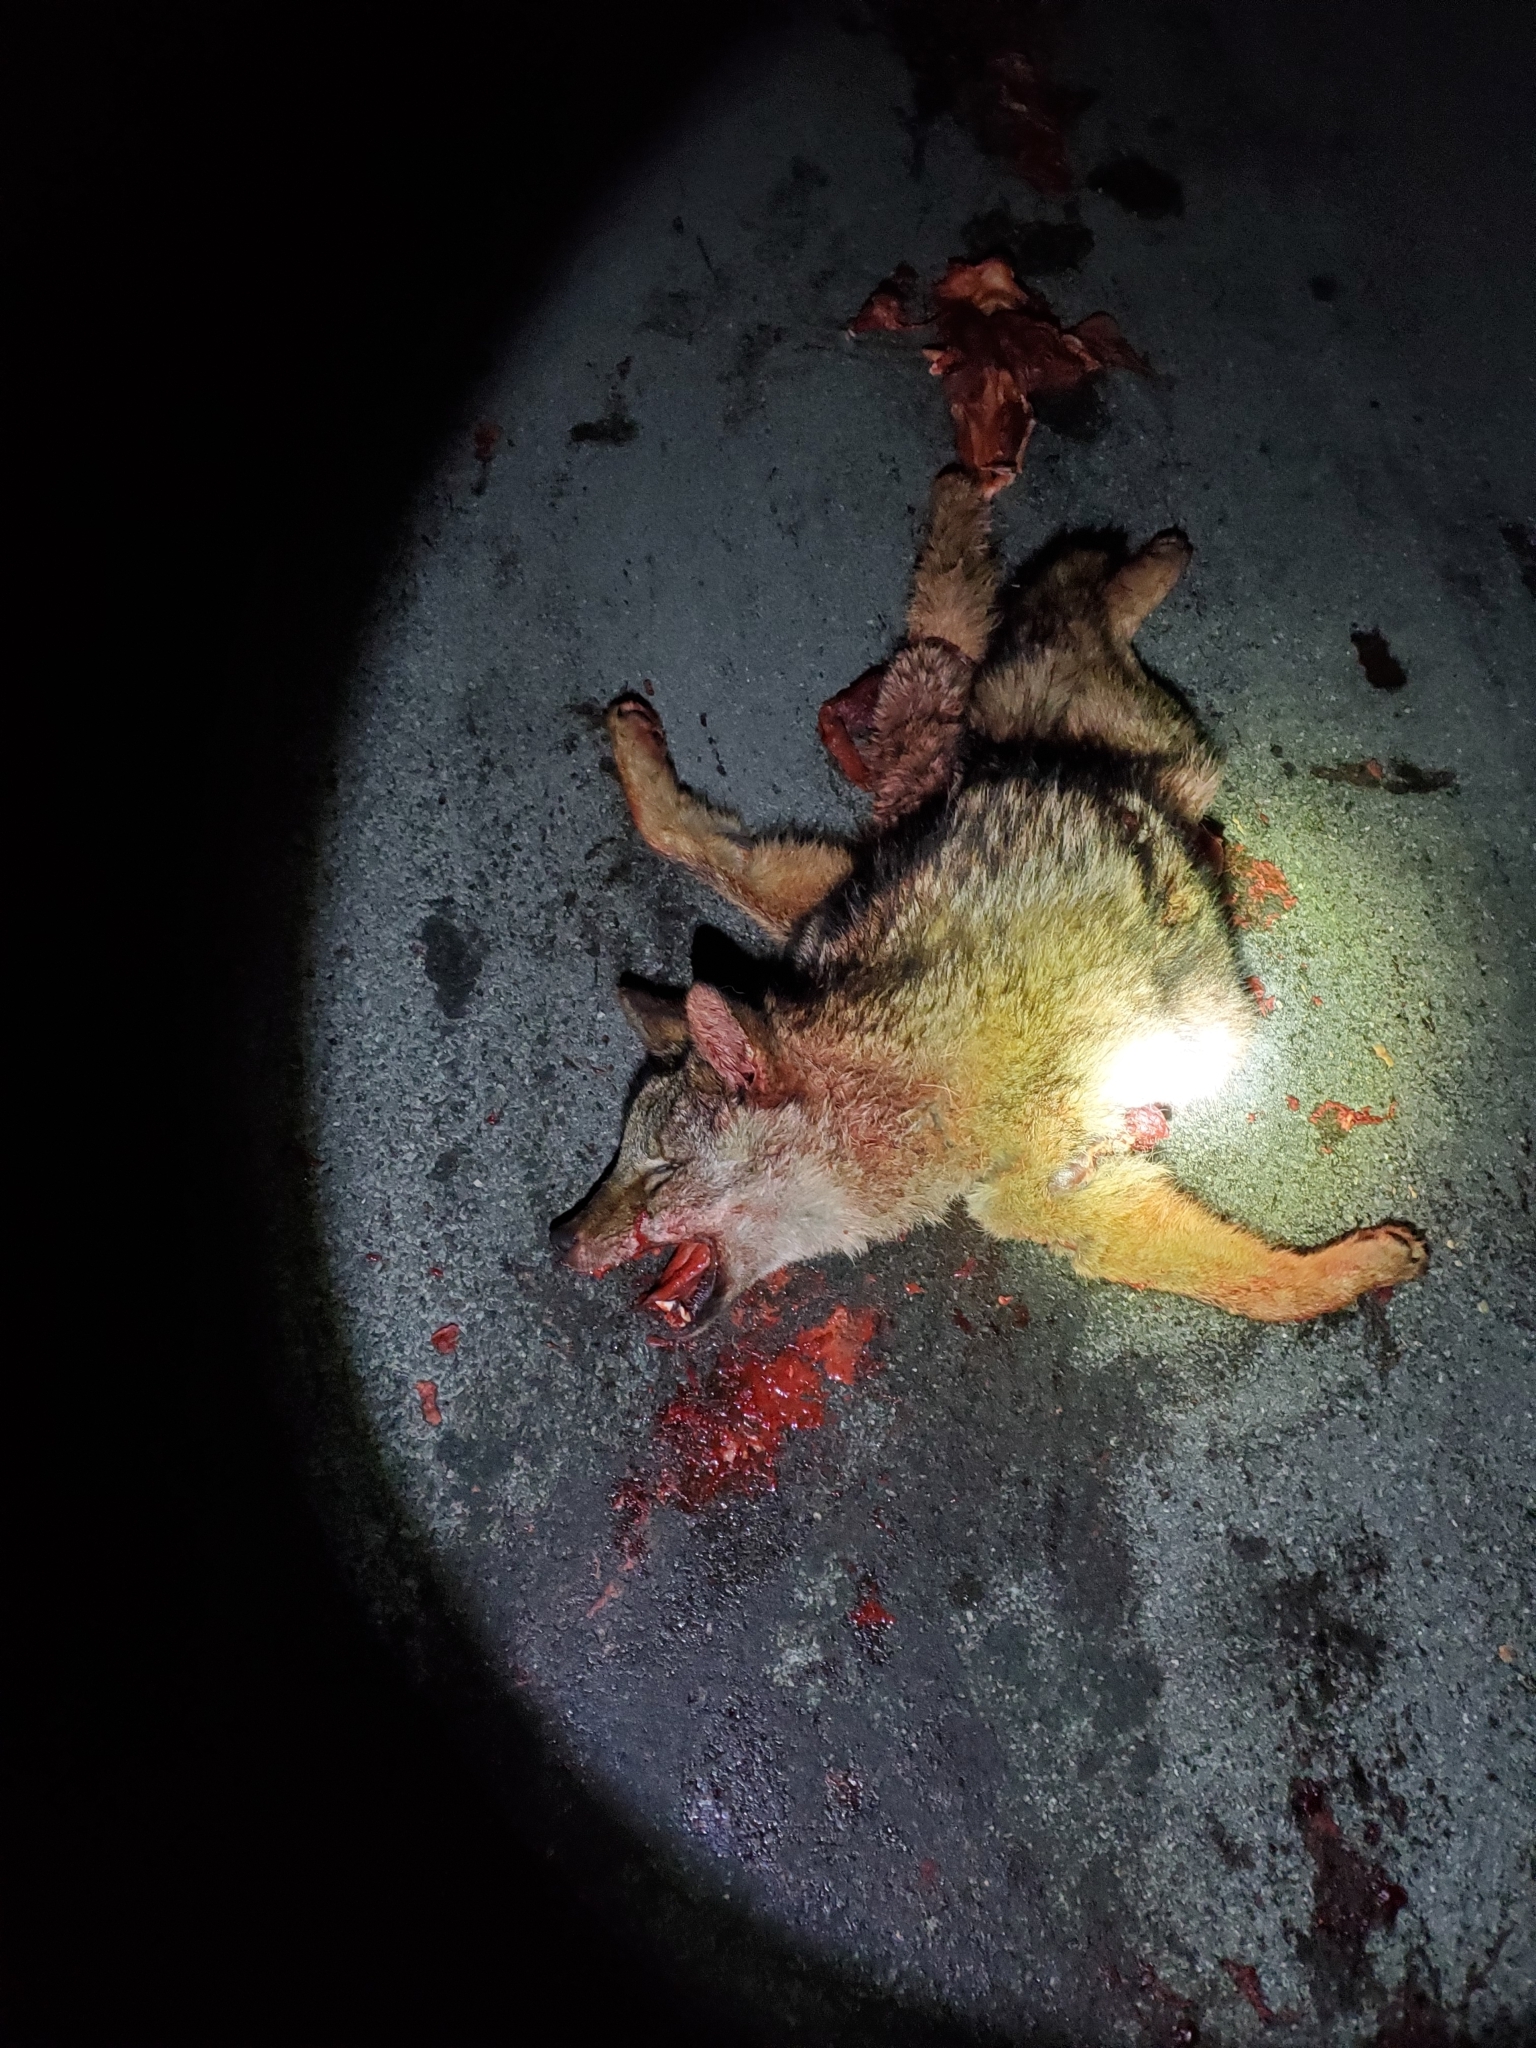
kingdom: Animalia
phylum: Chordata
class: Mammalia
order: Carnivora
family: Canidae
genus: Canis
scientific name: Canis latrans
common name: Coyote
